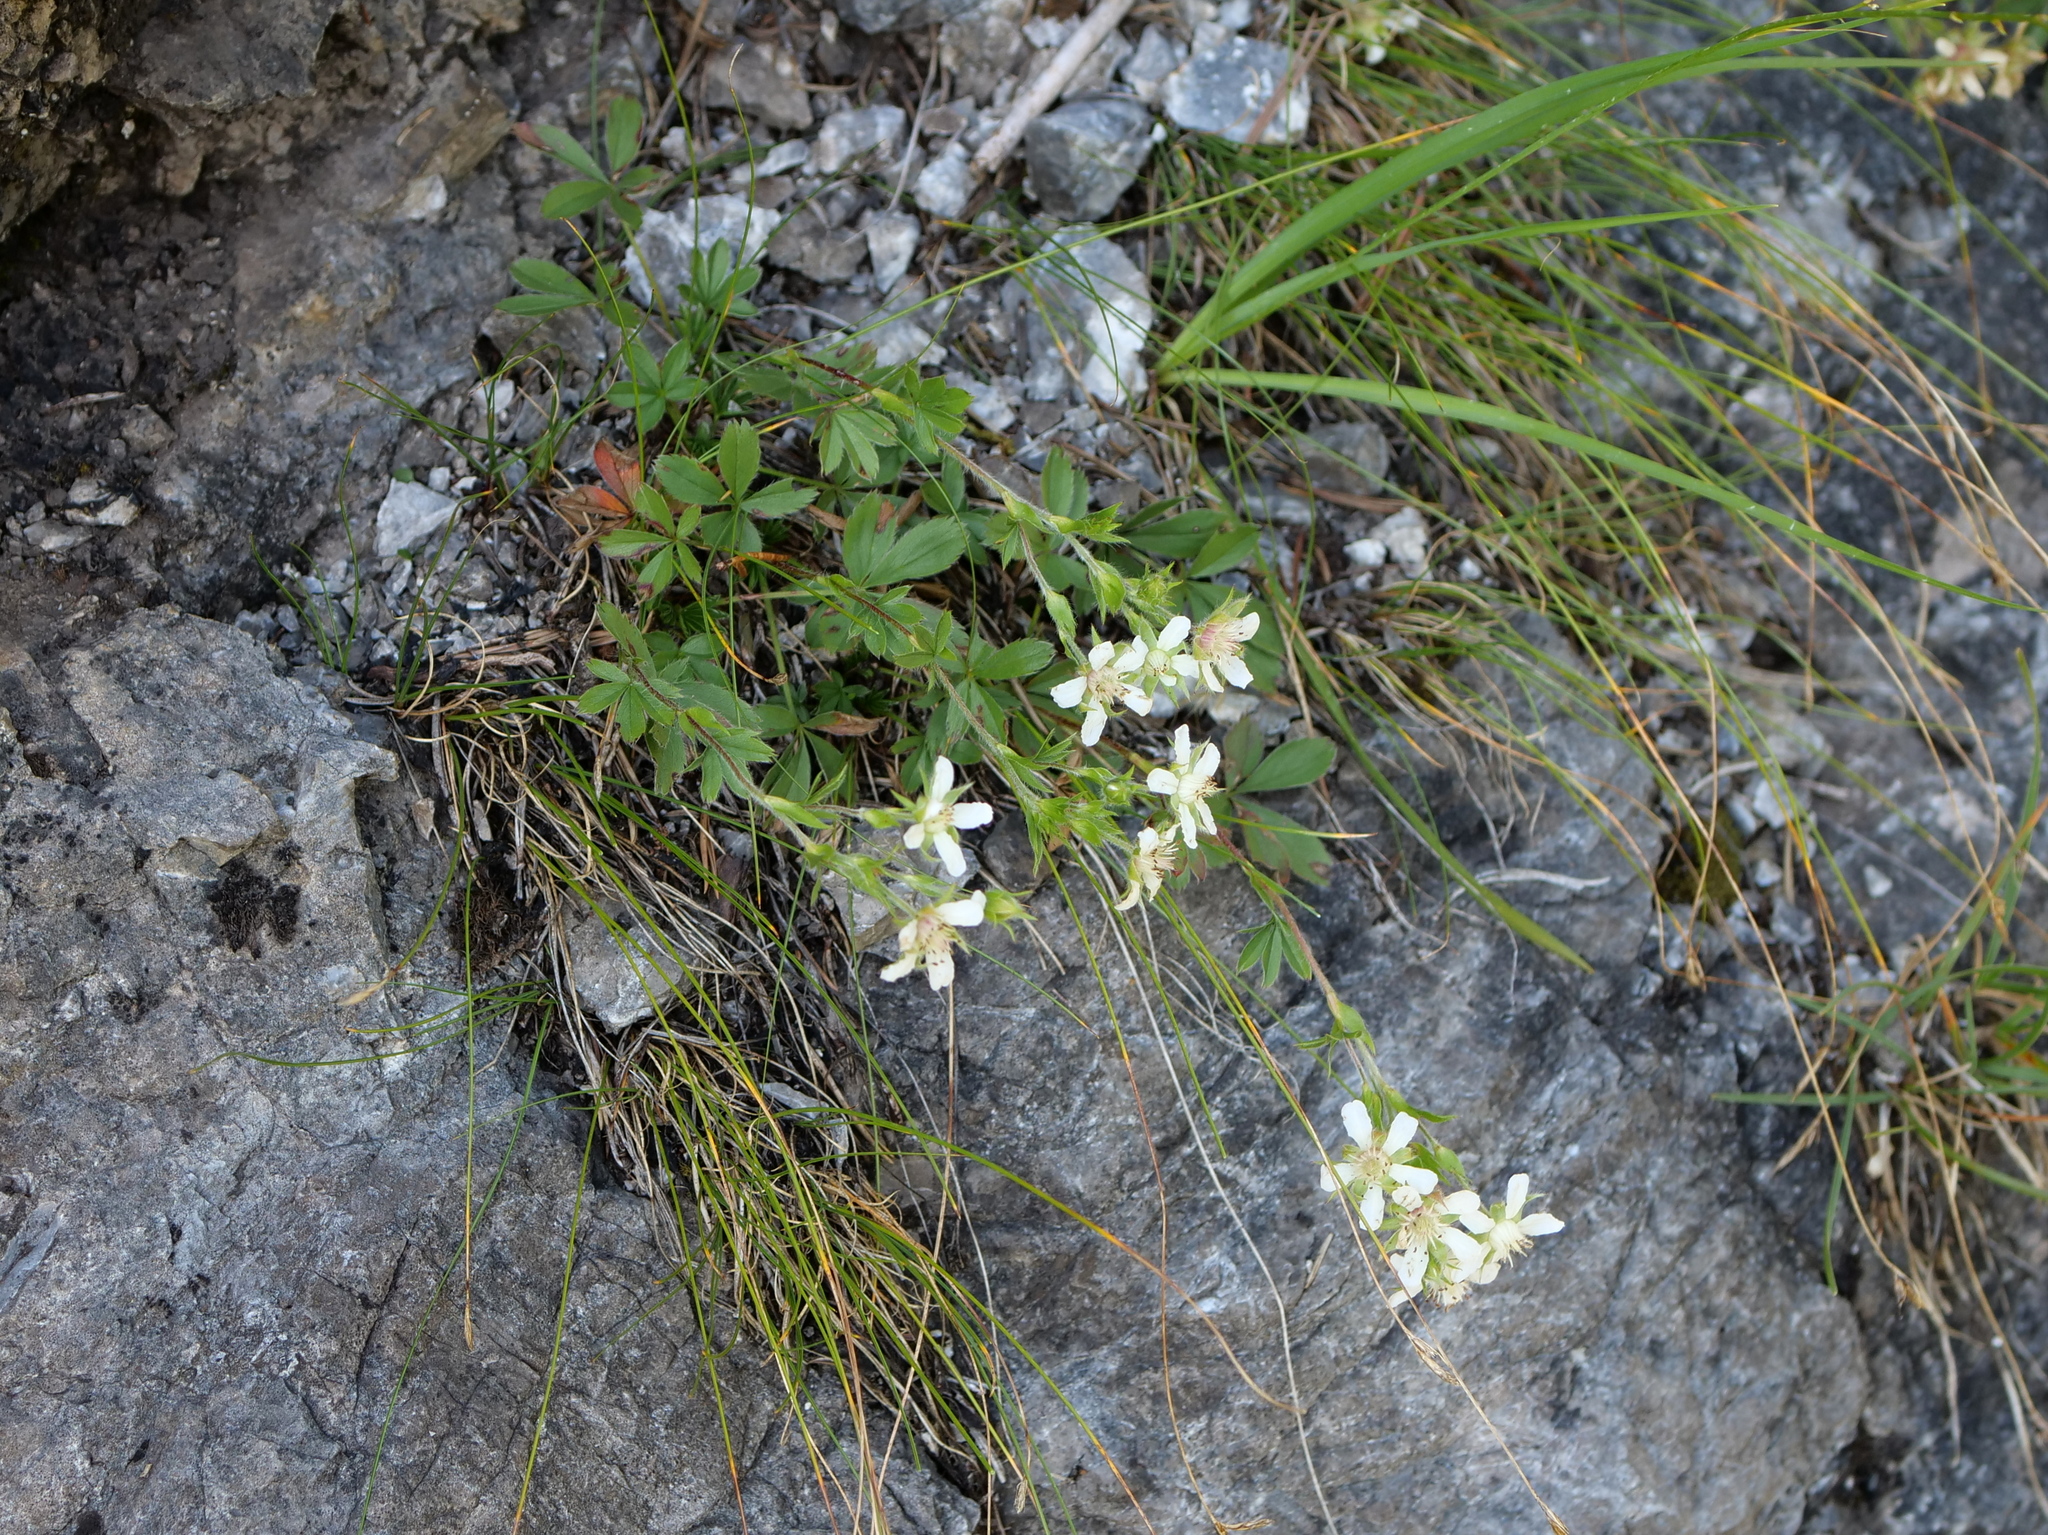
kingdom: Plantae
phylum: Tracheophyta
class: Magnoliopsida
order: Rosales
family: Rosaceae
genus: Potentilla
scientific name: Potentilla caulescens
